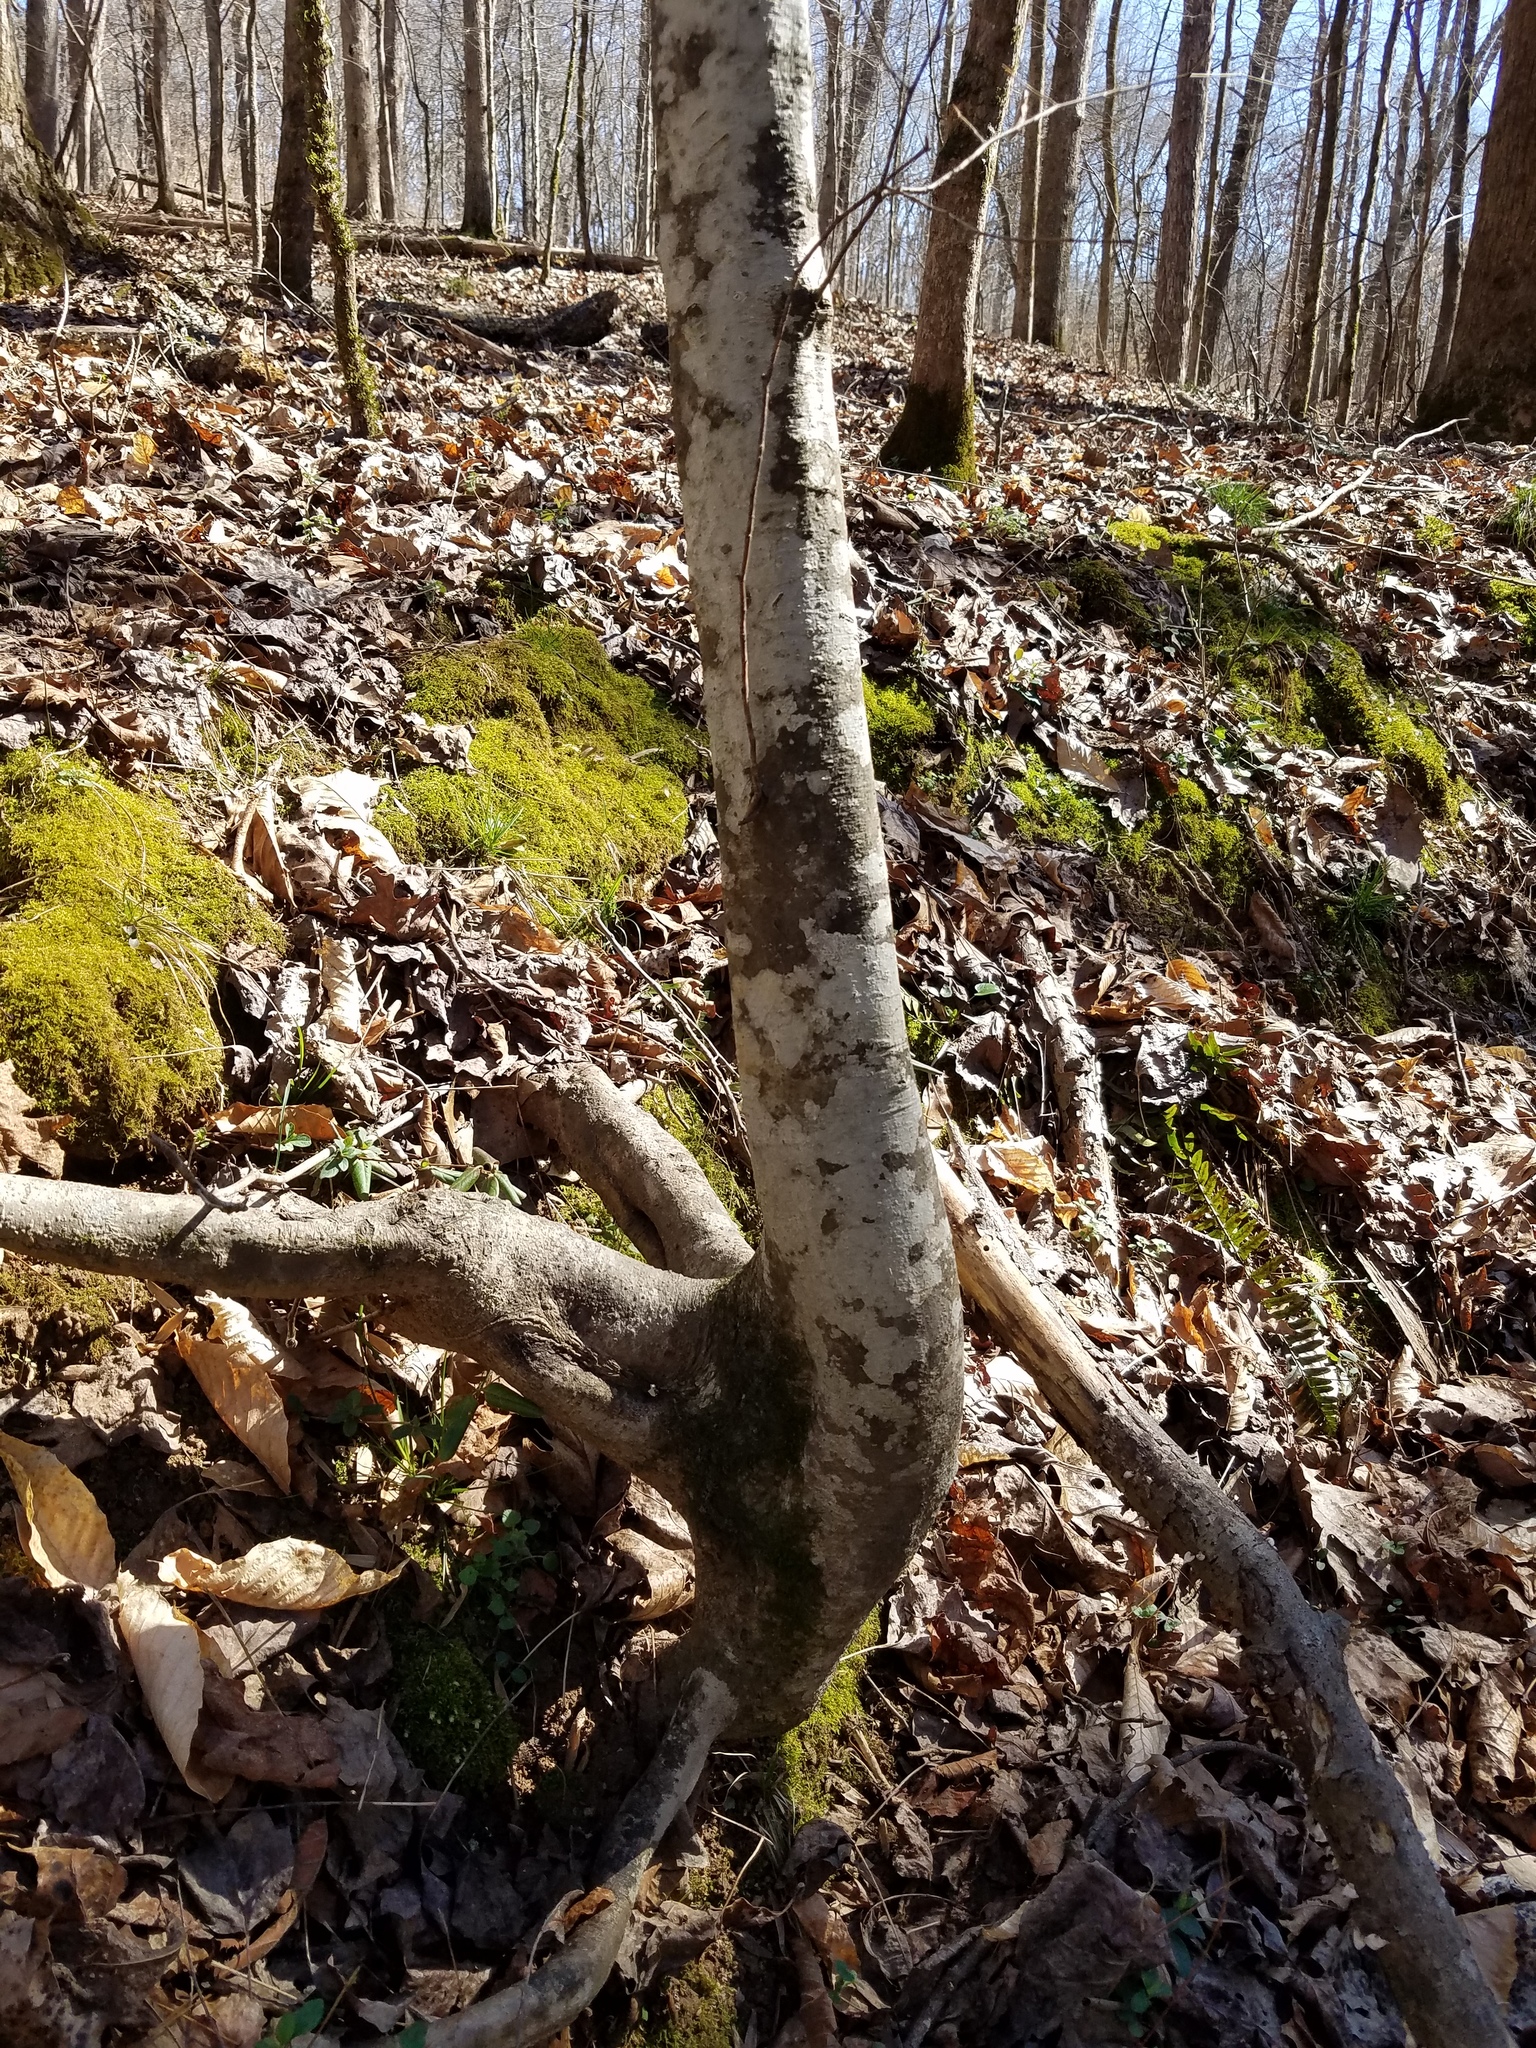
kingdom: Plantae
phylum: Tracheophyta
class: Magnoliopsida
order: Fagales
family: Fagaceae
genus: Fagus
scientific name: Fagus grandifolia
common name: American beech
